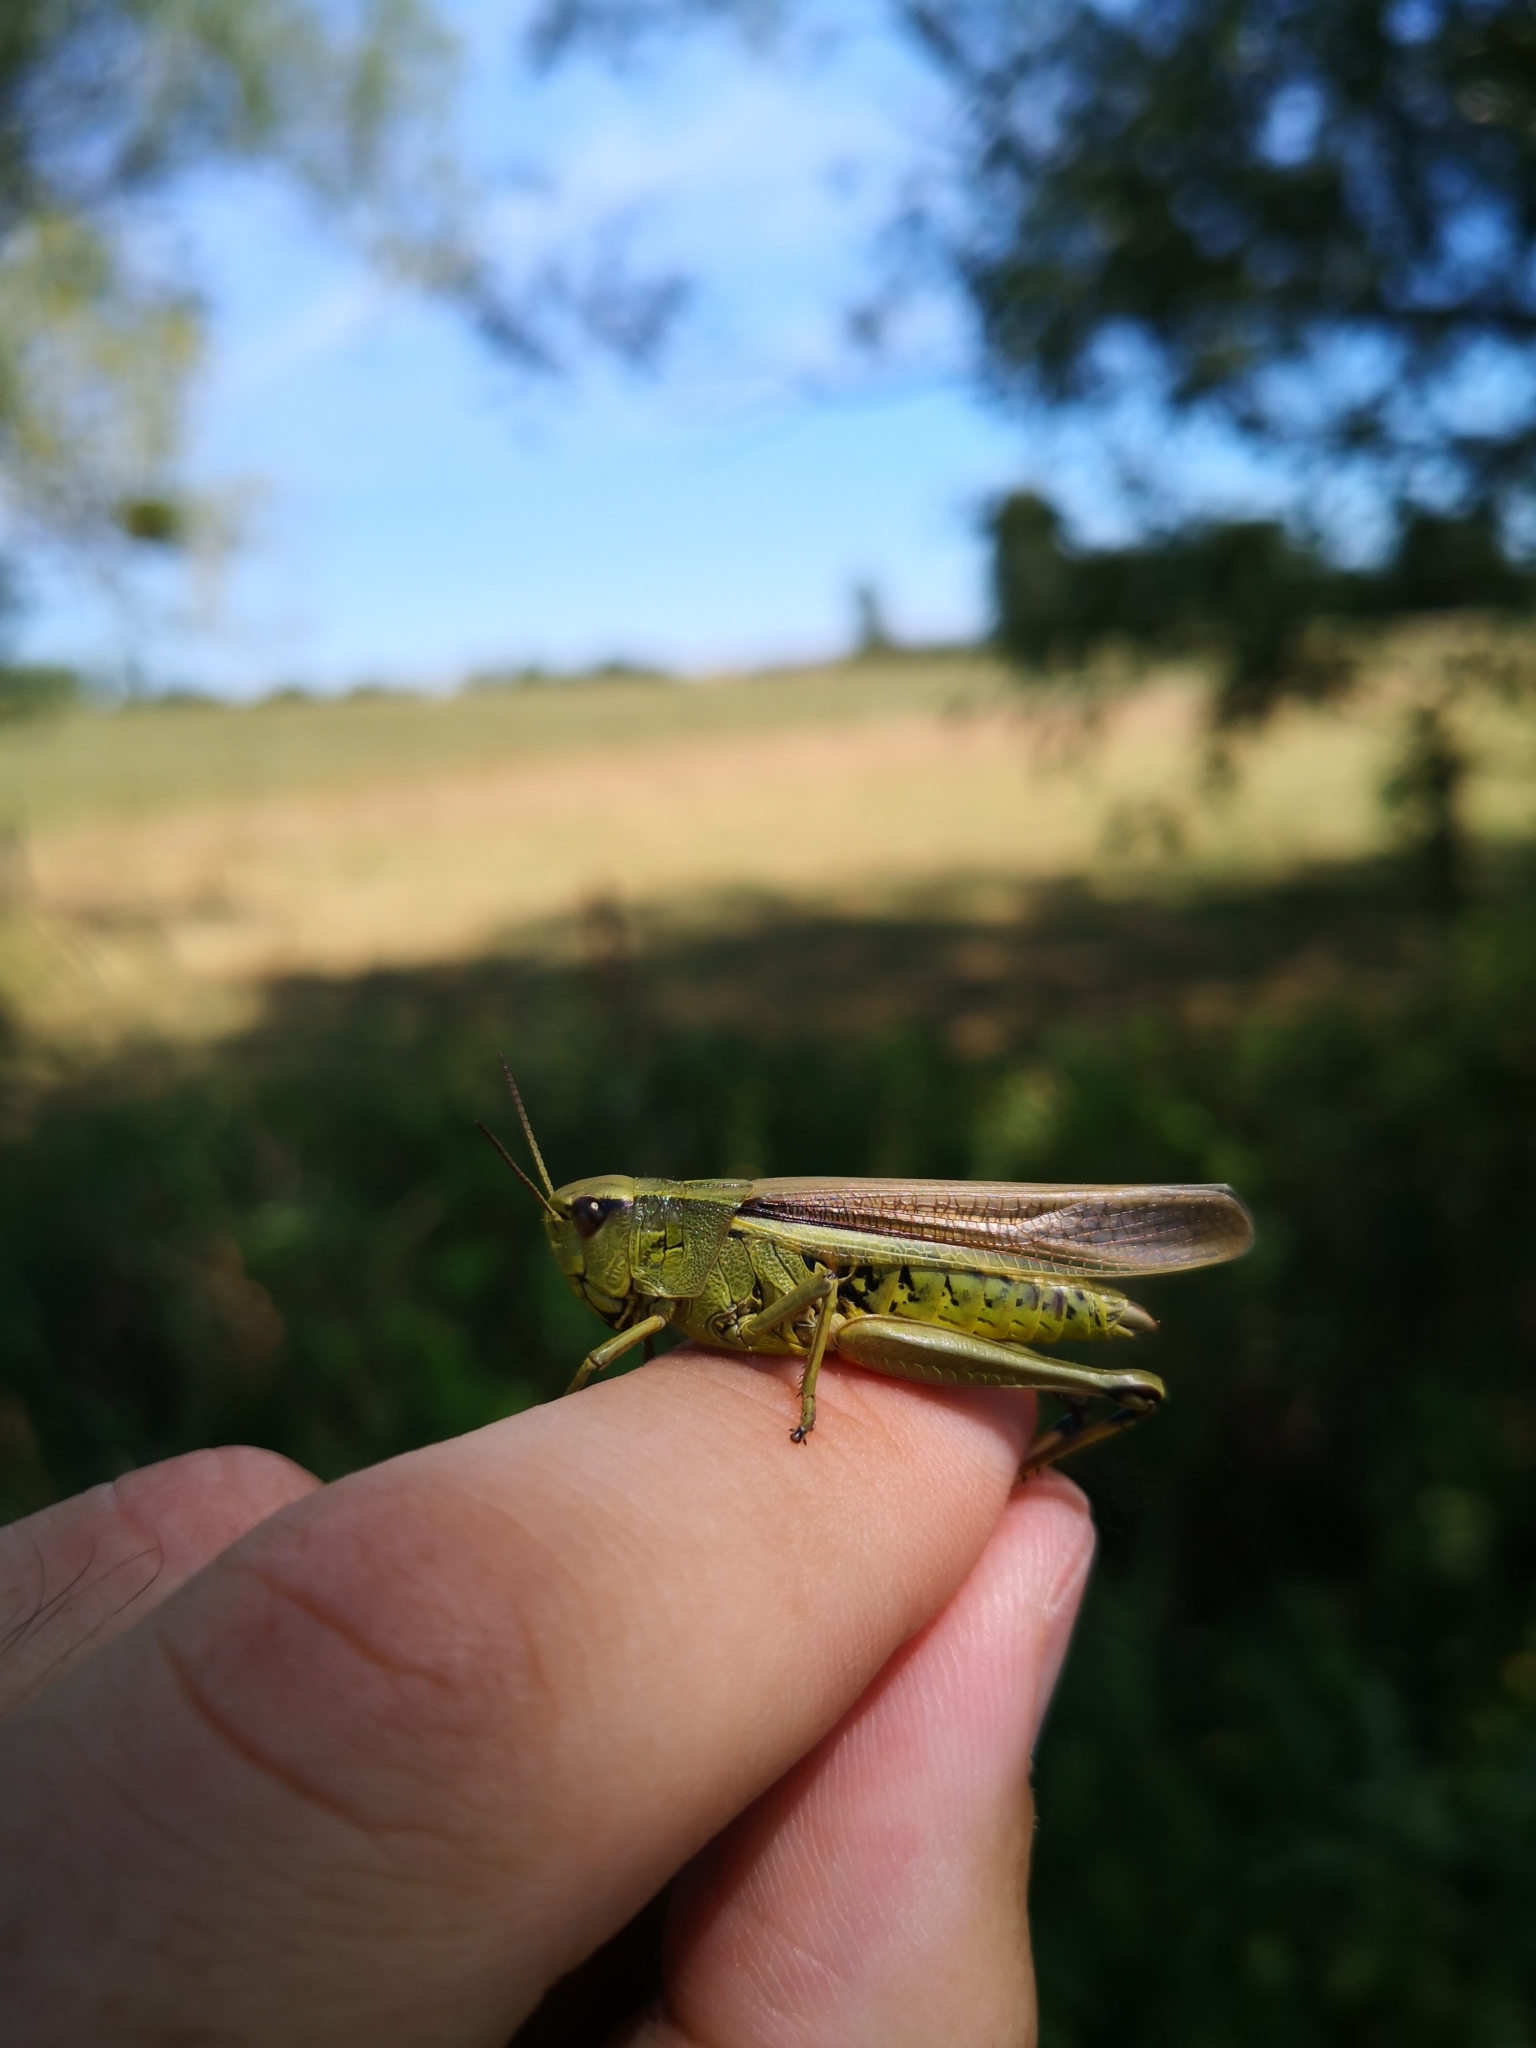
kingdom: Animalia
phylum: Arthropoda
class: Insecta
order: Orthoptera
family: Acrididae
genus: Stethophyma
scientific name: Stethophyma grossum
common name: Large marsh grasshopper
